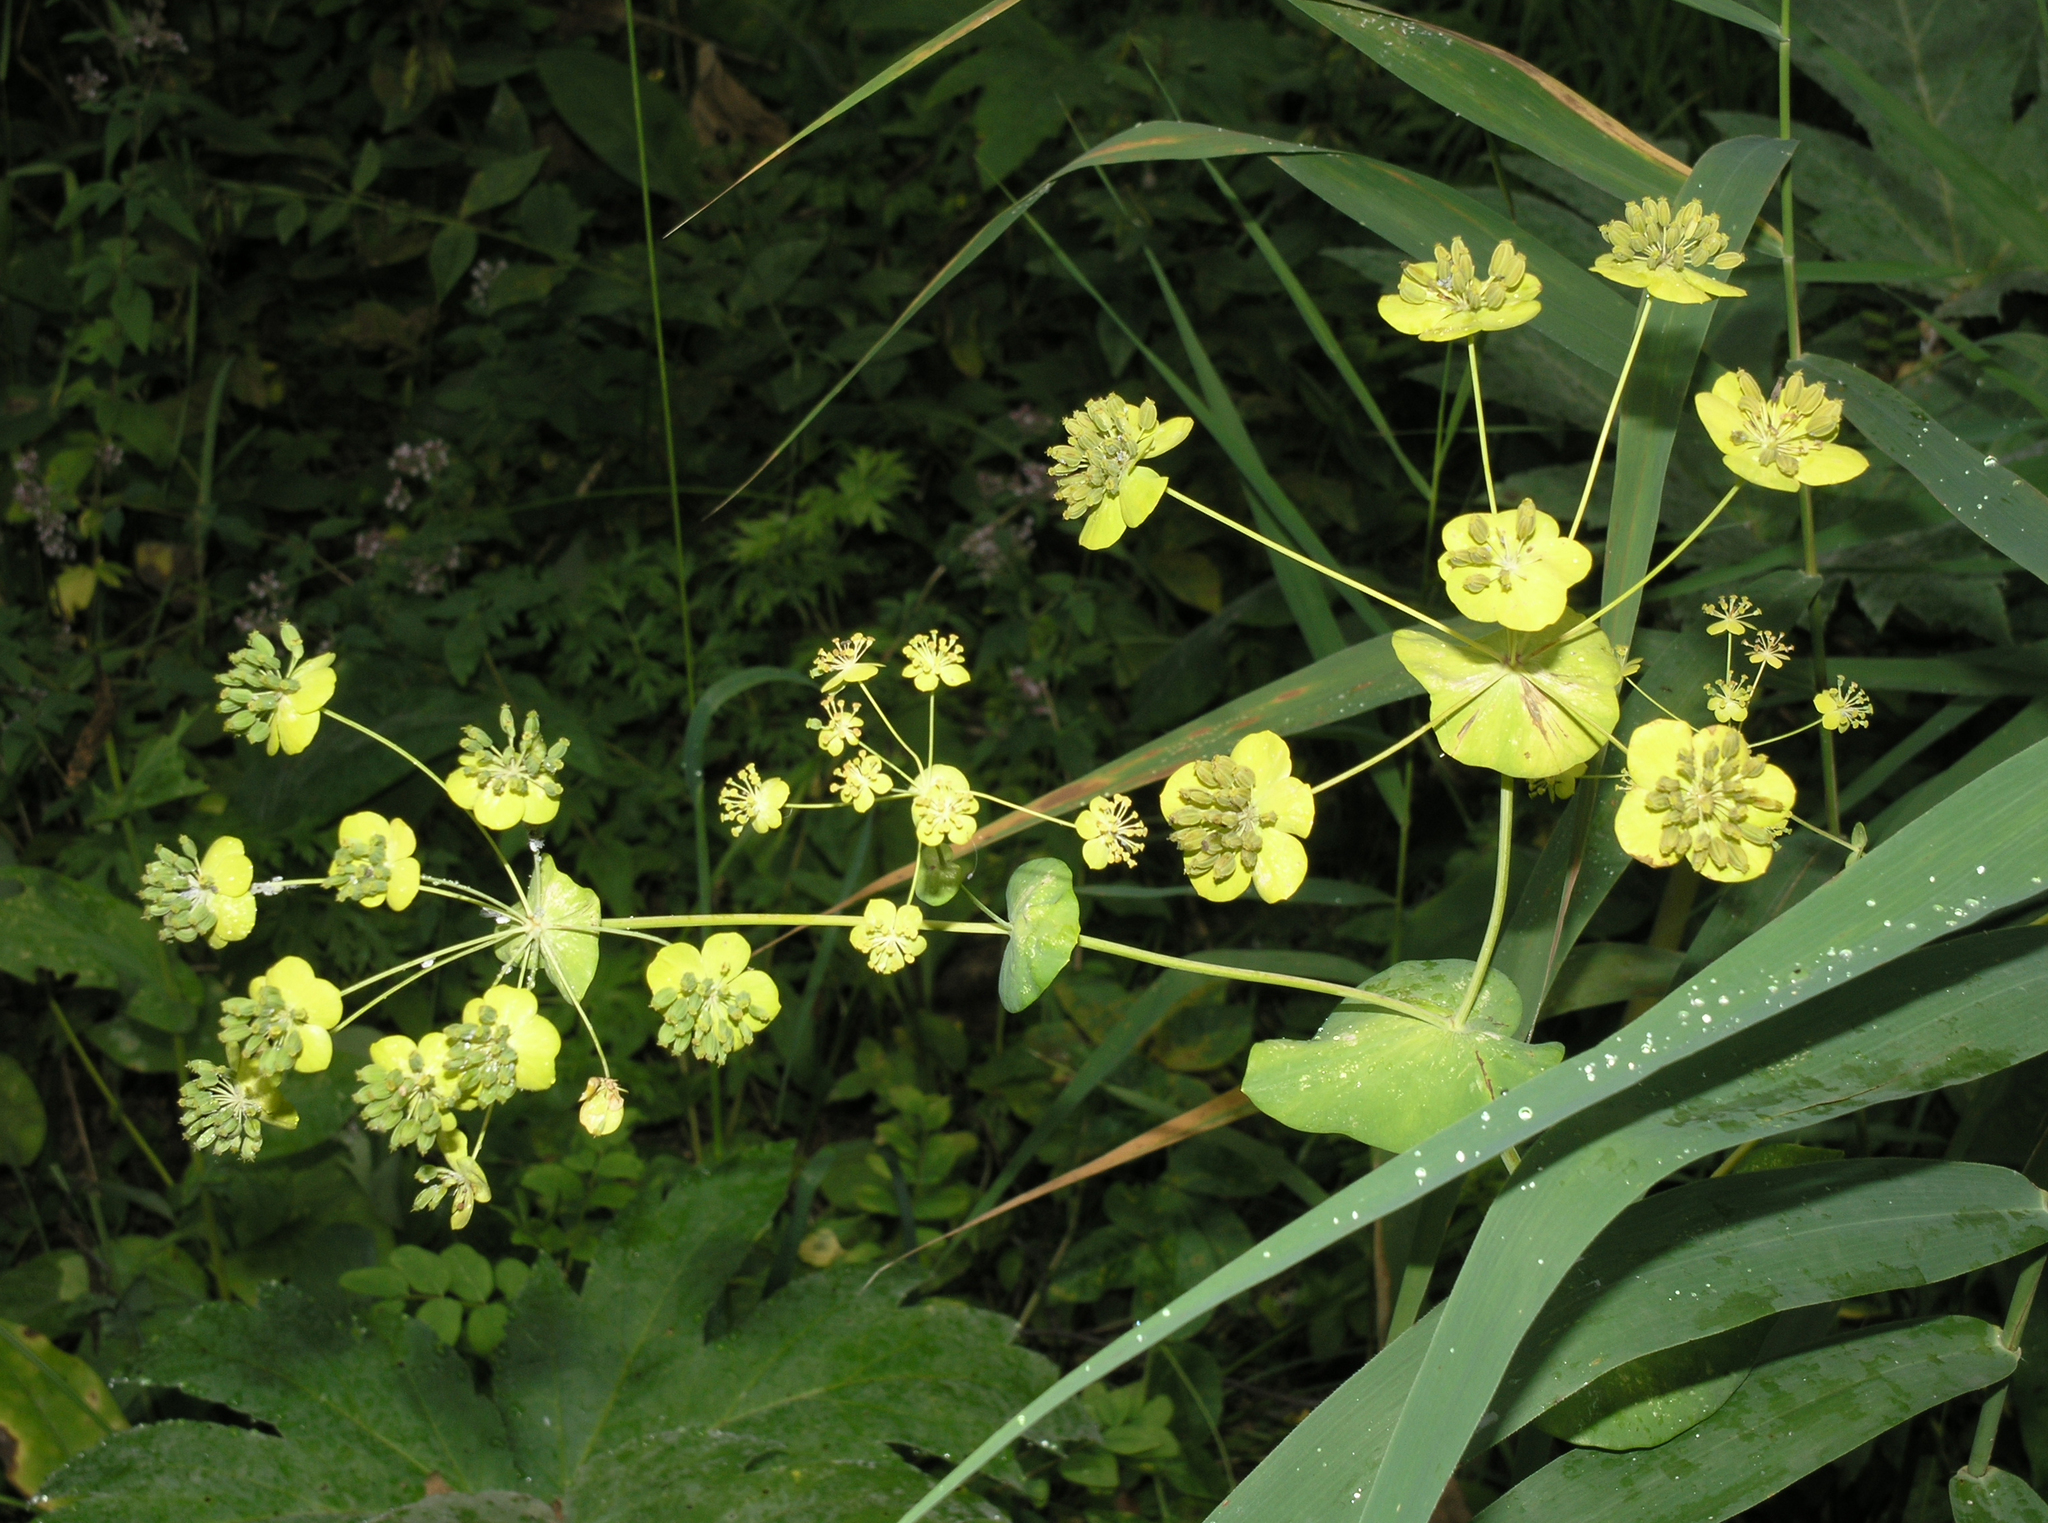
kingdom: Plantae
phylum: Tracheophyta
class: Magnoliopsida
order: Apiales
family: Apiaceae
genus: Bupleurum
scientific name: Bupleurum aureum
